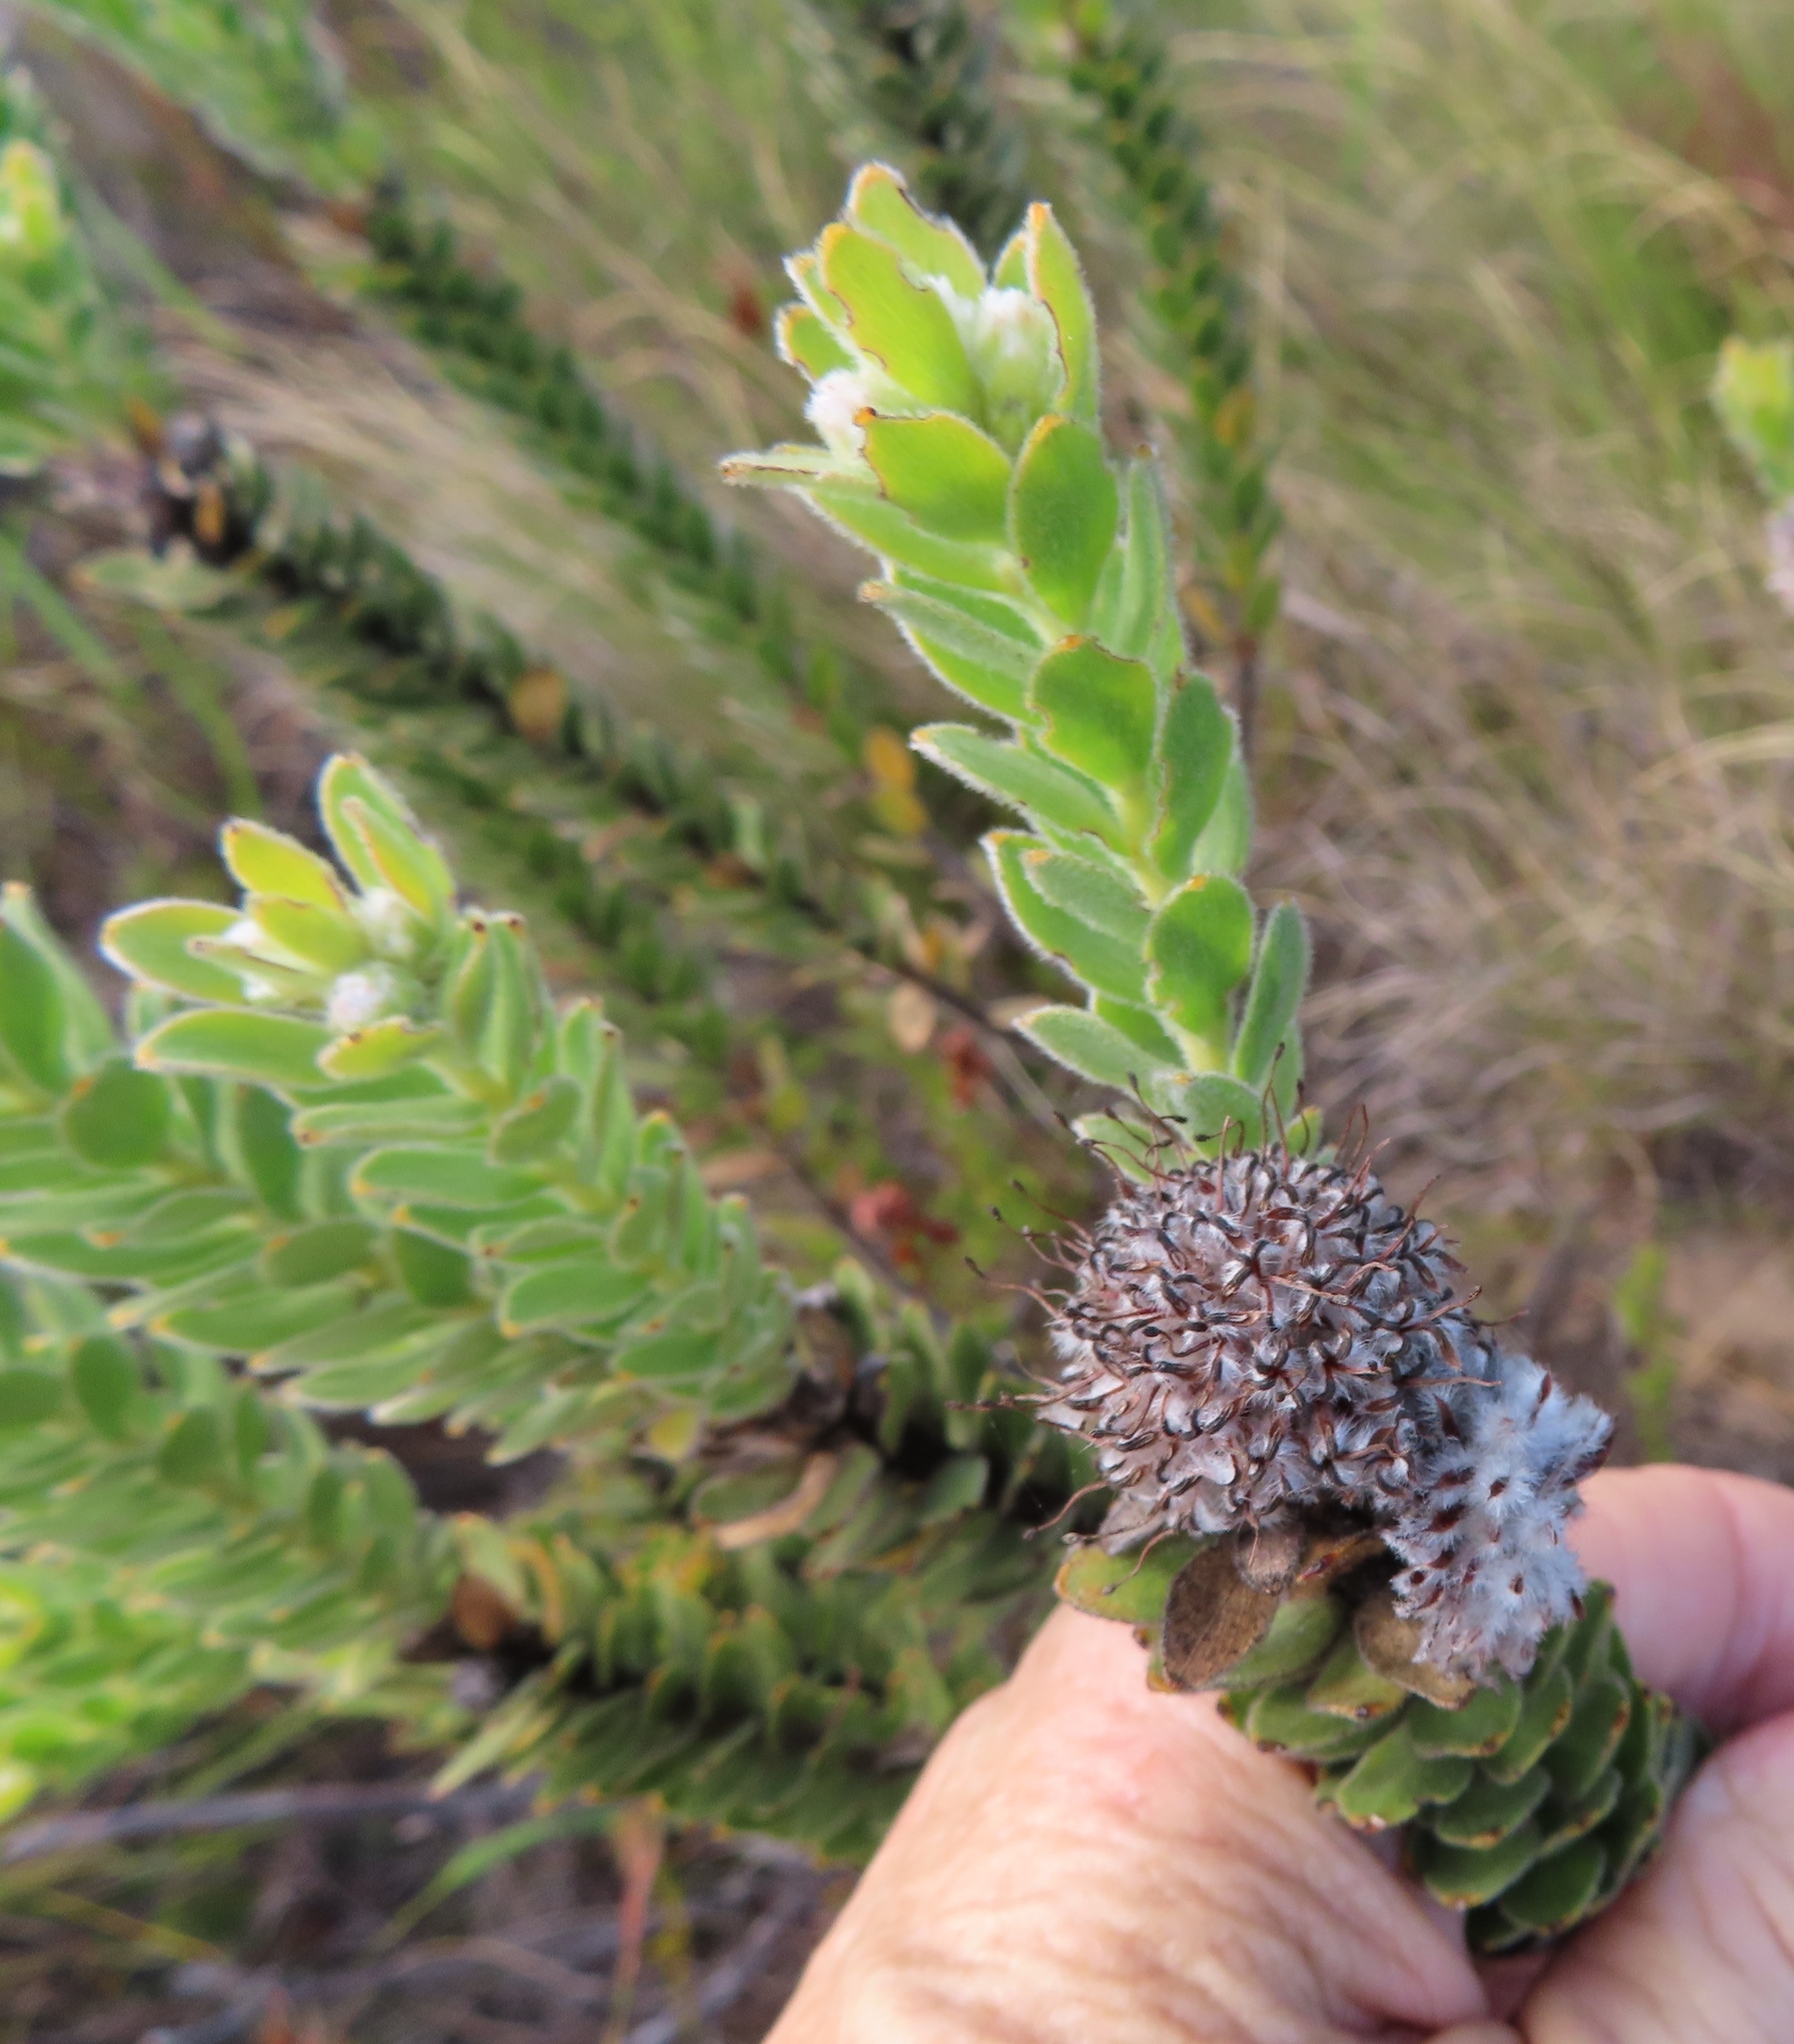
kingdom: Plantae
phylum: Tracheophyta
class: Magnoliopsida
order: Proteales
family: Proteaceae
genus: Leucospermum
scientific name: Leucospermum truncatulum
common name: Oval-leaf pincushion
